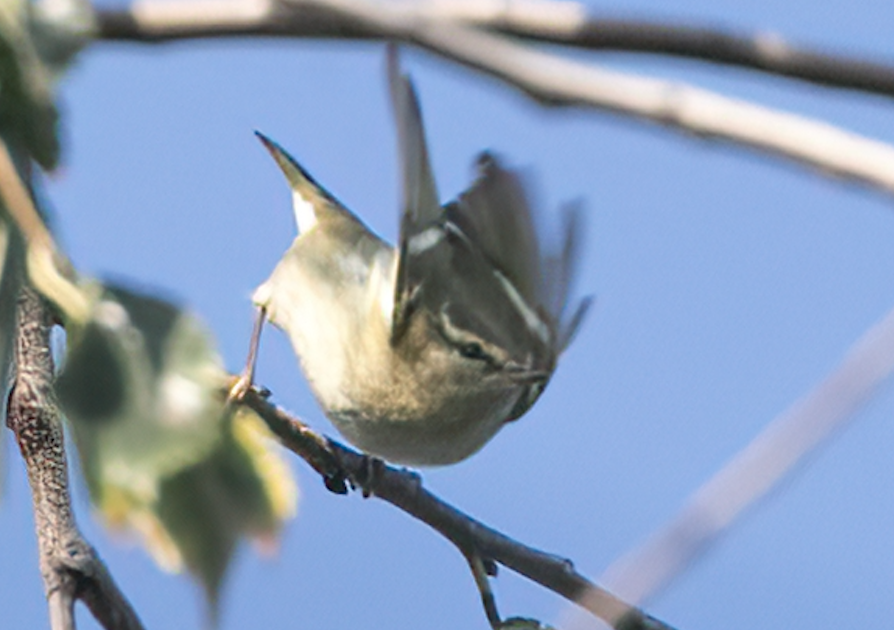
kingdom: Animalia
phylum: Chordata
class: Aves
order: Passeriformes
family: Phylloscopidae
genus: Phylloscopus
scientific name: Phylloscopus inornatus
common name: Yellow-browed warbler
